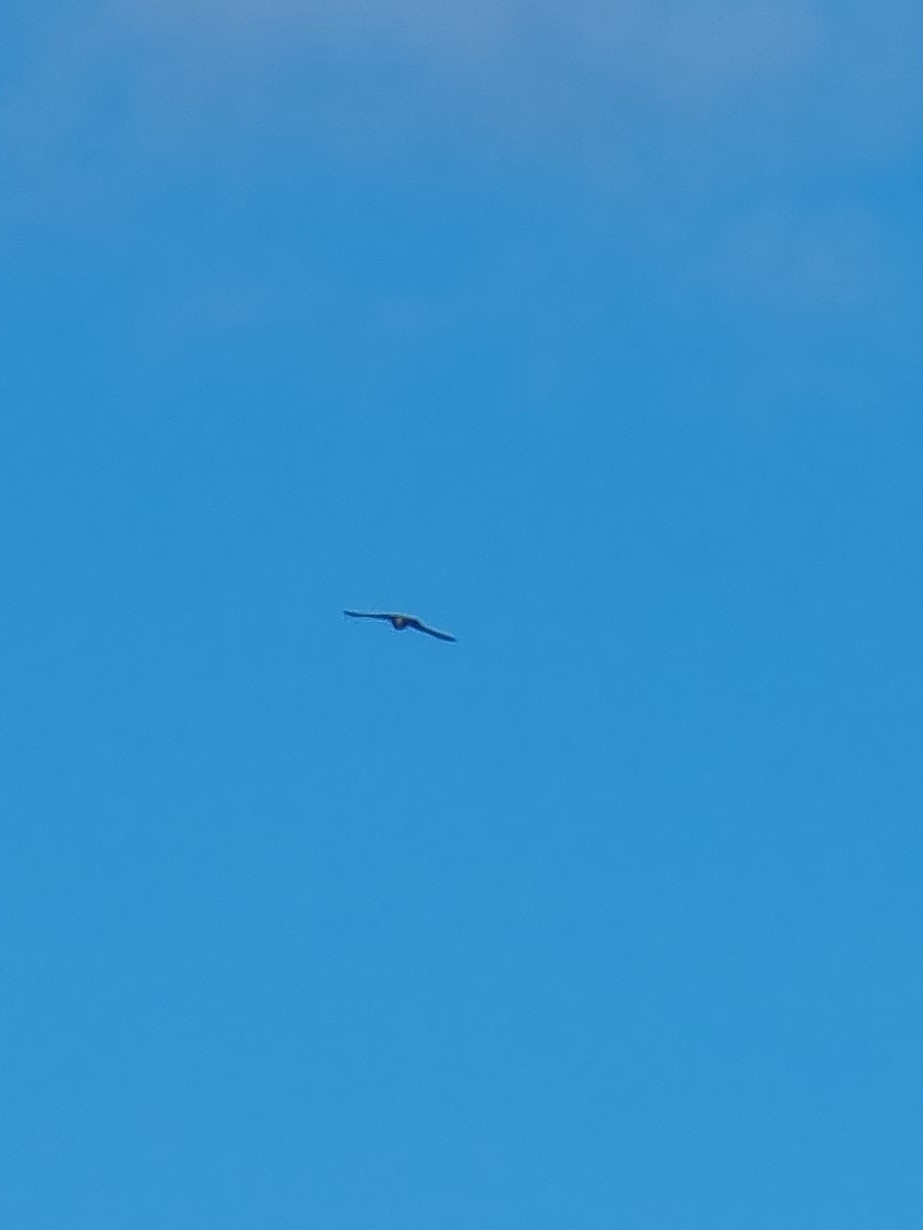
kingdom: Animalia
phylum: Chordata
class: Aves
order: Falconiformes
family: Falconidae
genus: Falco
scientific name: Falco tinnunculus
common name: Common kestrel
